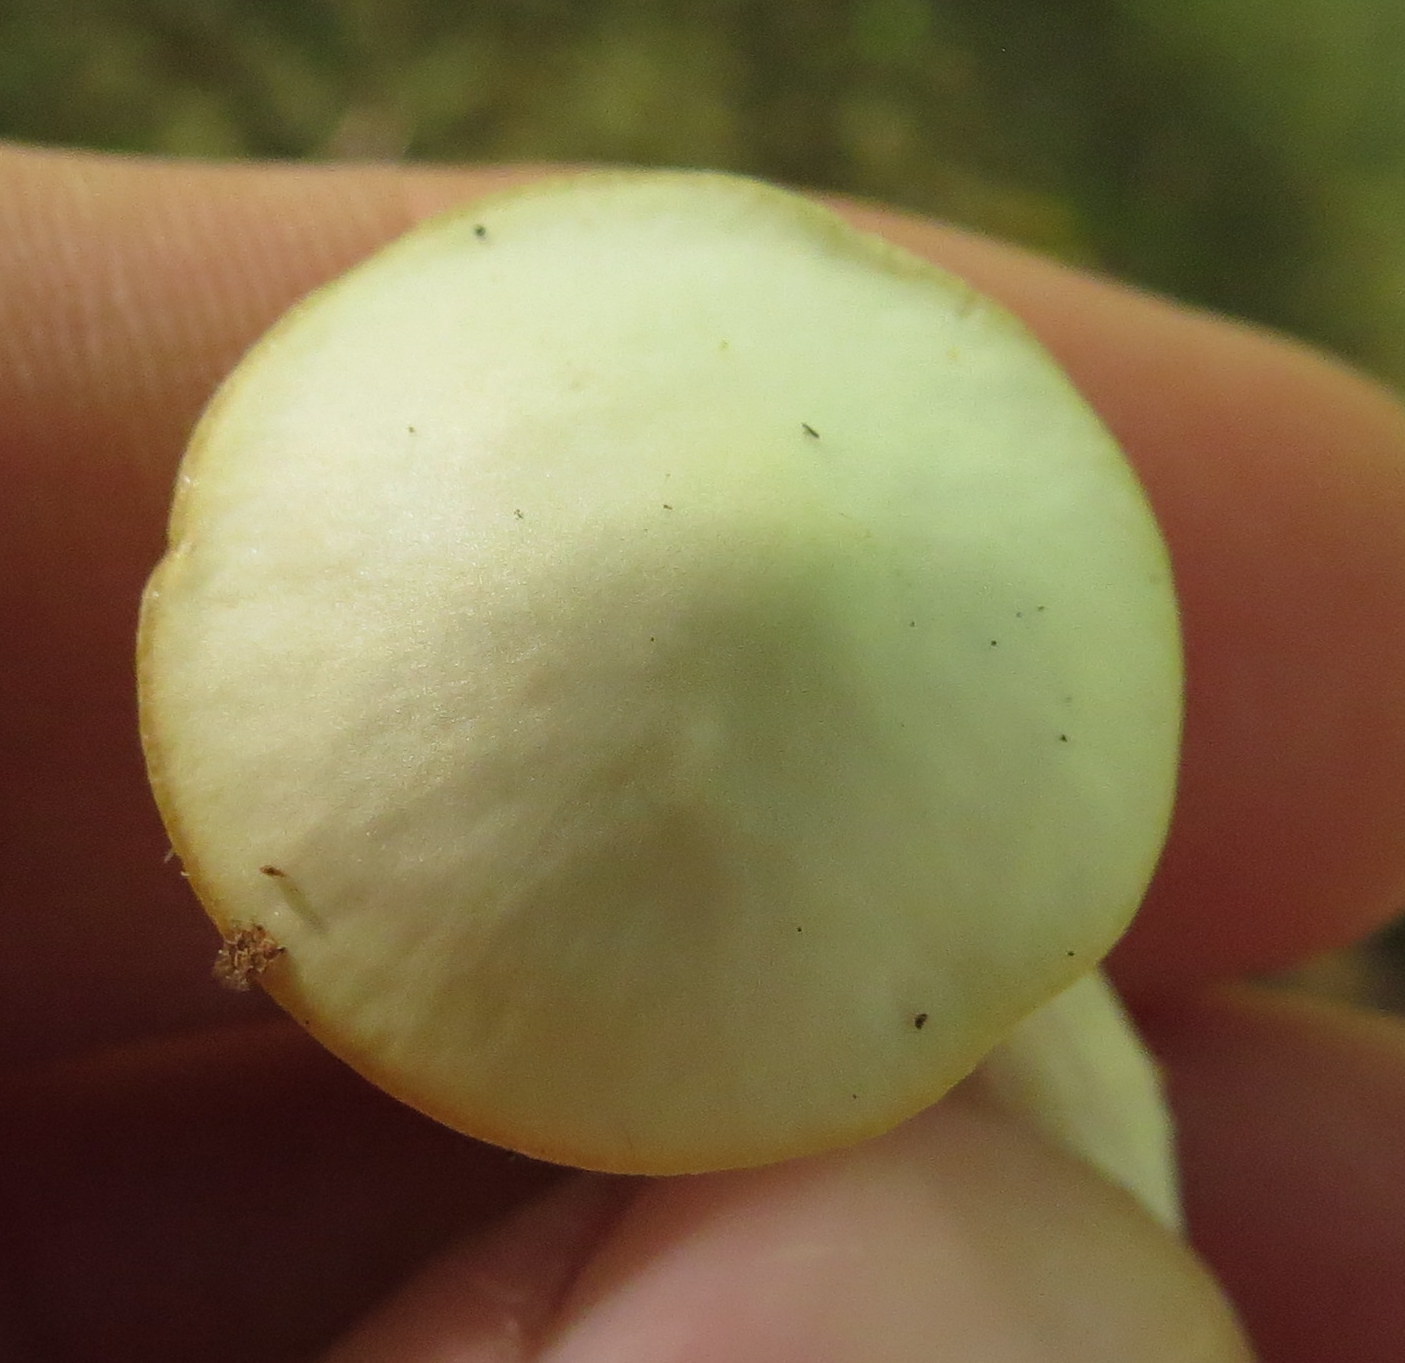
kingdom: Fungi
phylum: Basidiomycota
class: Agaricomycetes
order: Agaricales
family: Hygrophoraceae
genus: Cuphophyllus
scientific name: Cuphophyllus virgineus
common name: Snowy waxcap
